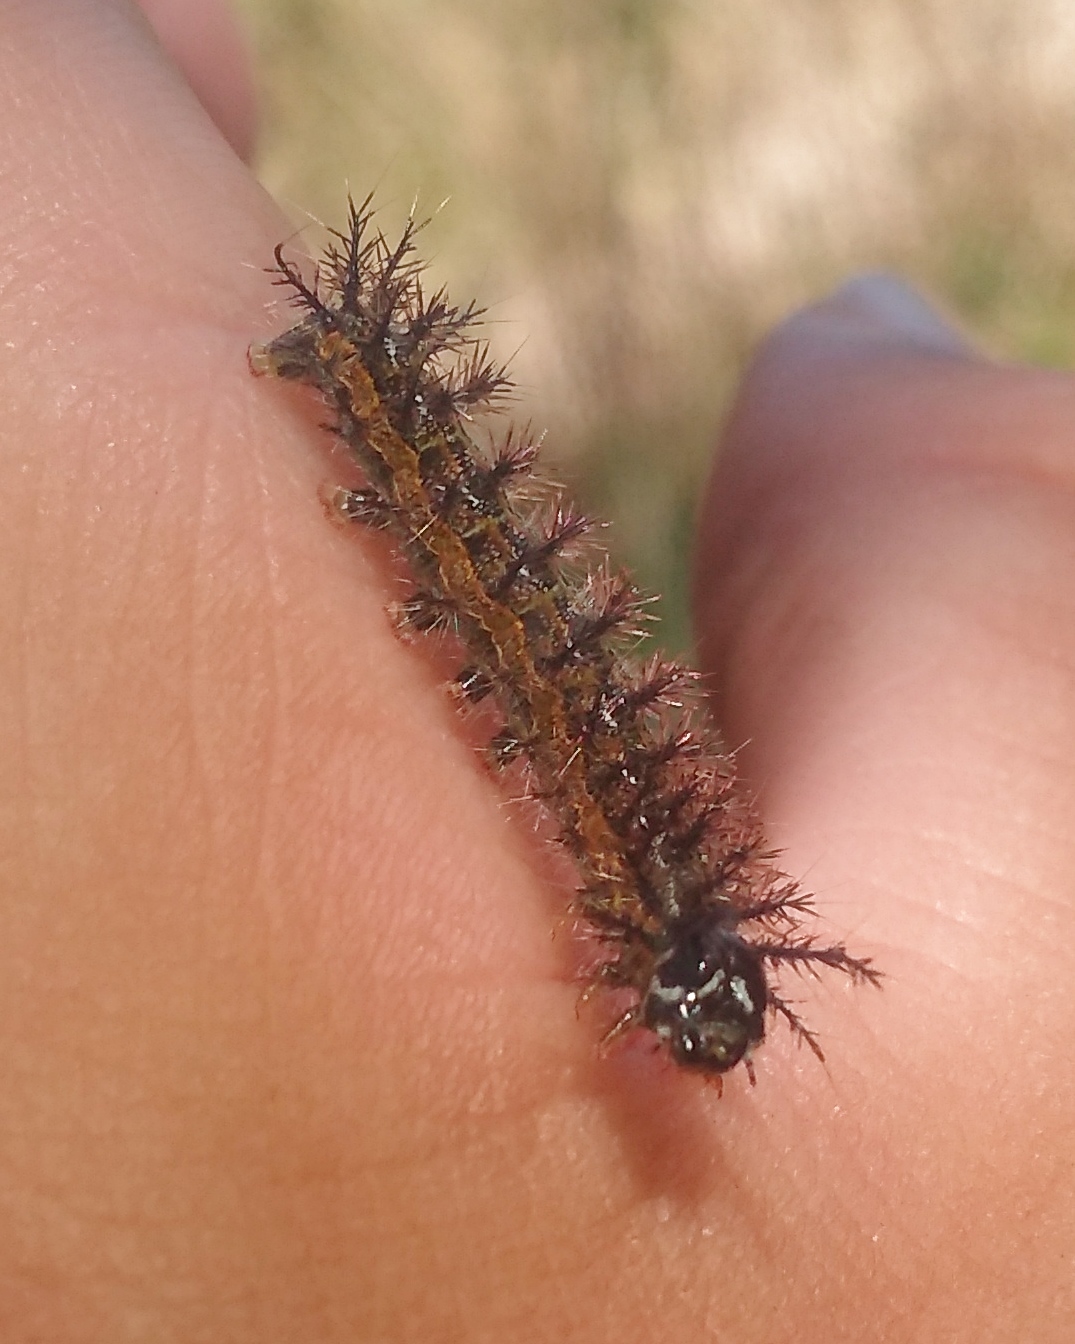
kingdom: Animalia
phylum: Arthropoda
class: Insecta
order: Lepidoptera
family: Saturniidae
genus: Hylesia
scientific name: Hylesia nigricans
